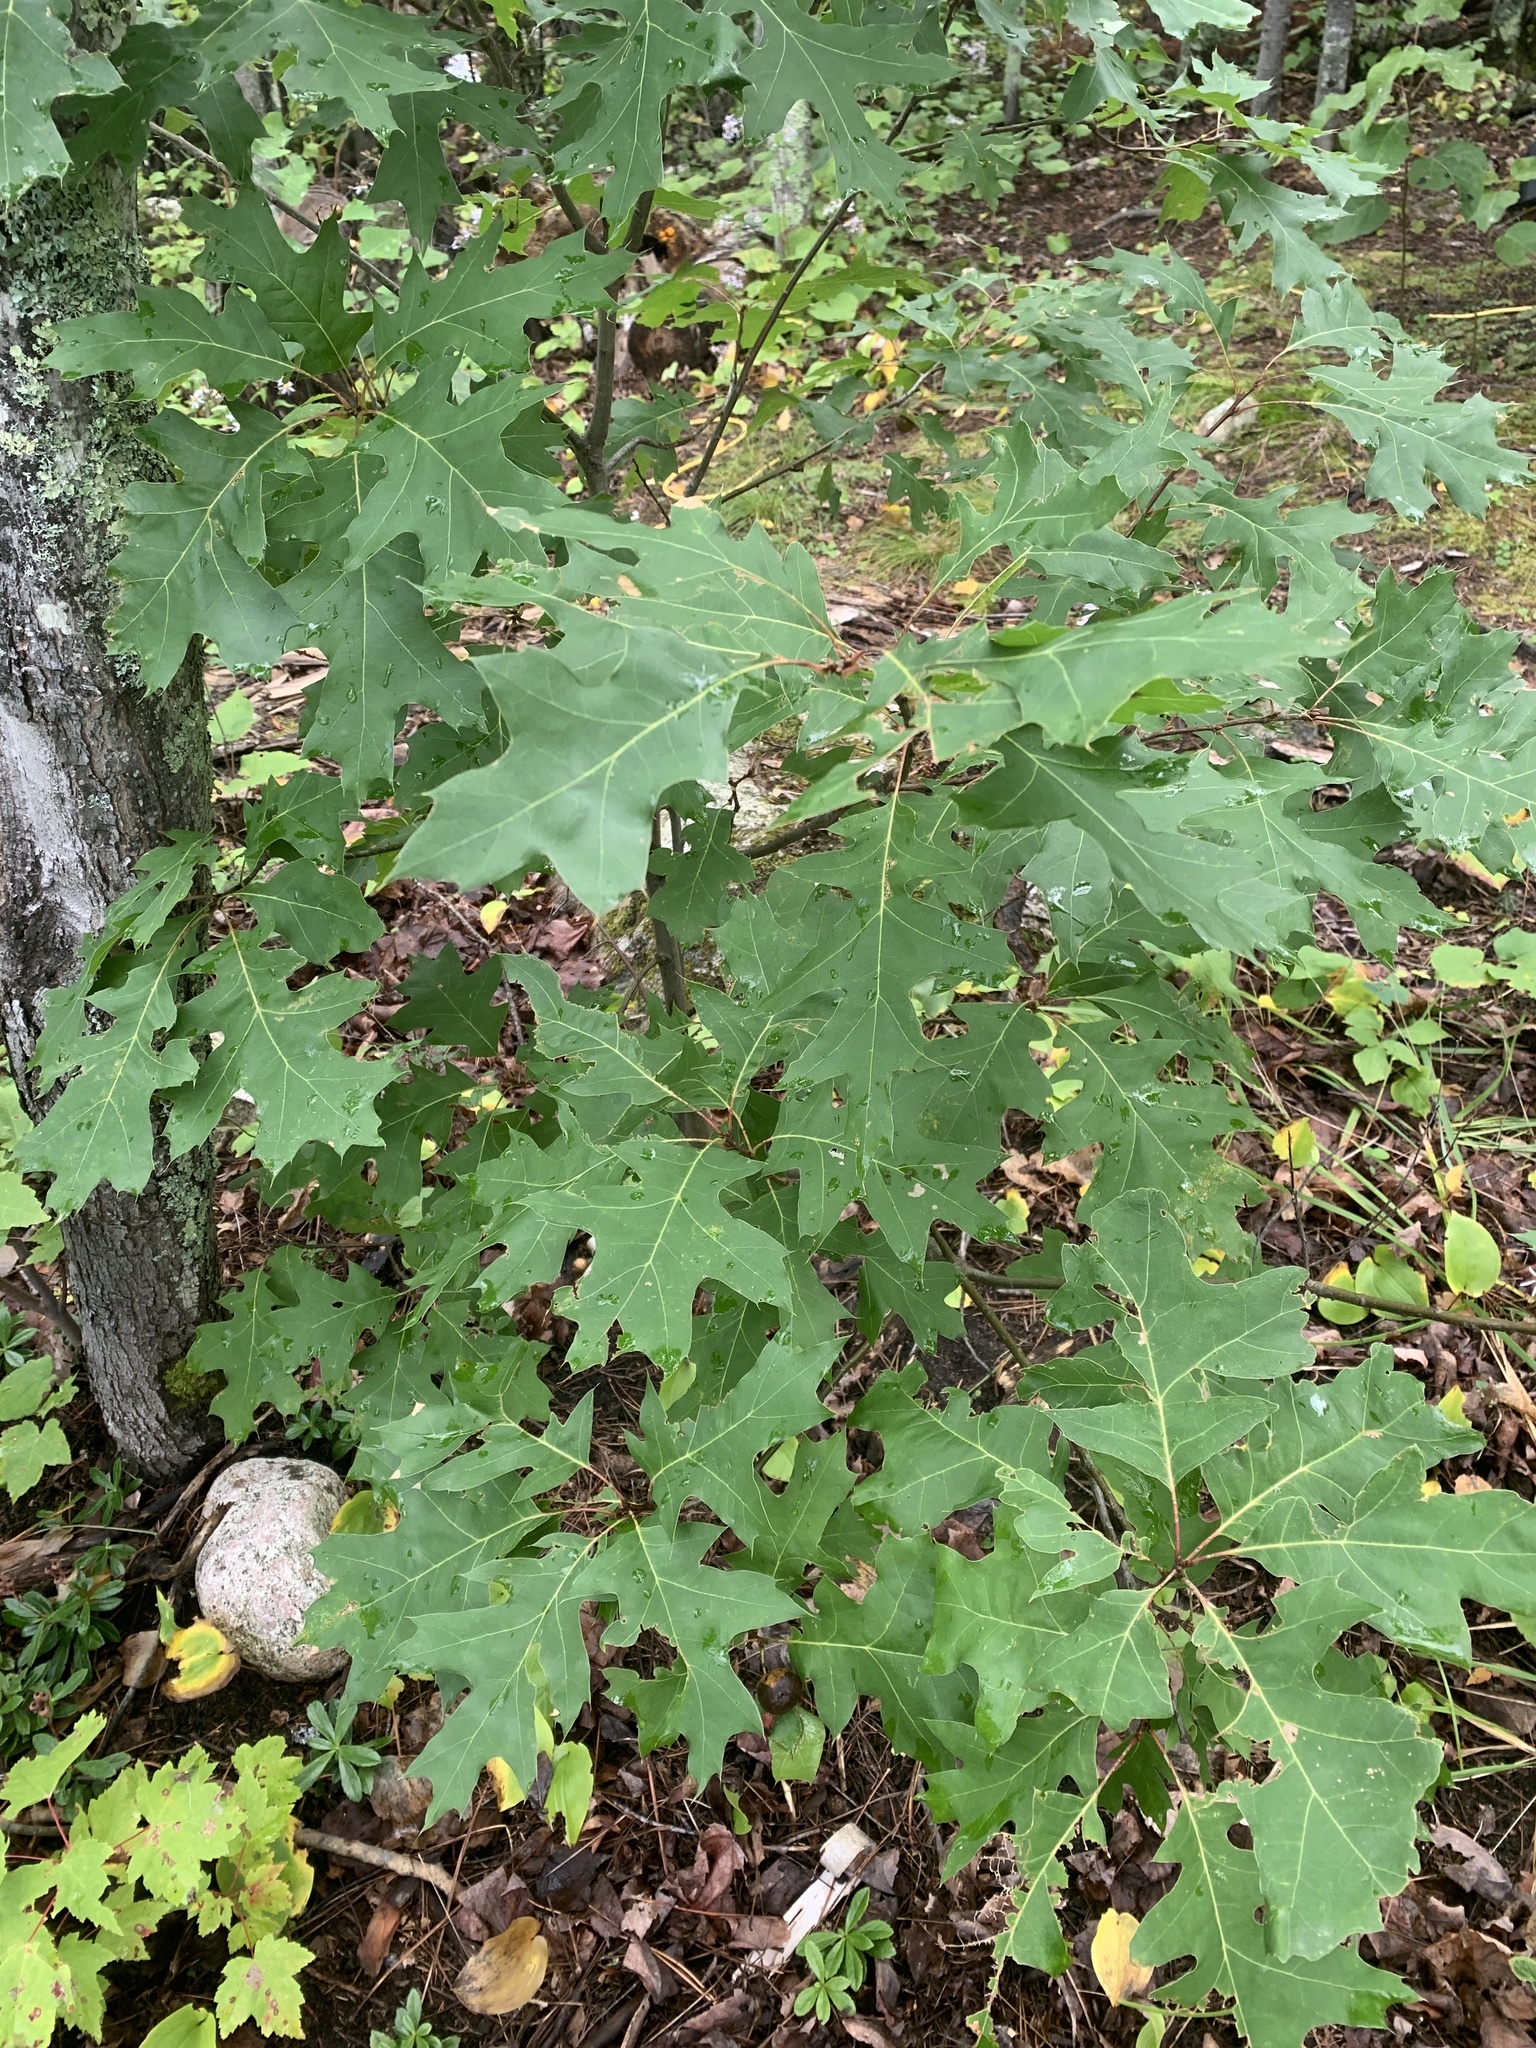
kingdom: Plantae
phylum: Tracheophyta
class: Magnoliopsida
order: Fagales
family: Fagaceae
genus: Quercus
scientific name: Quercus rubra
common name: Red oak
